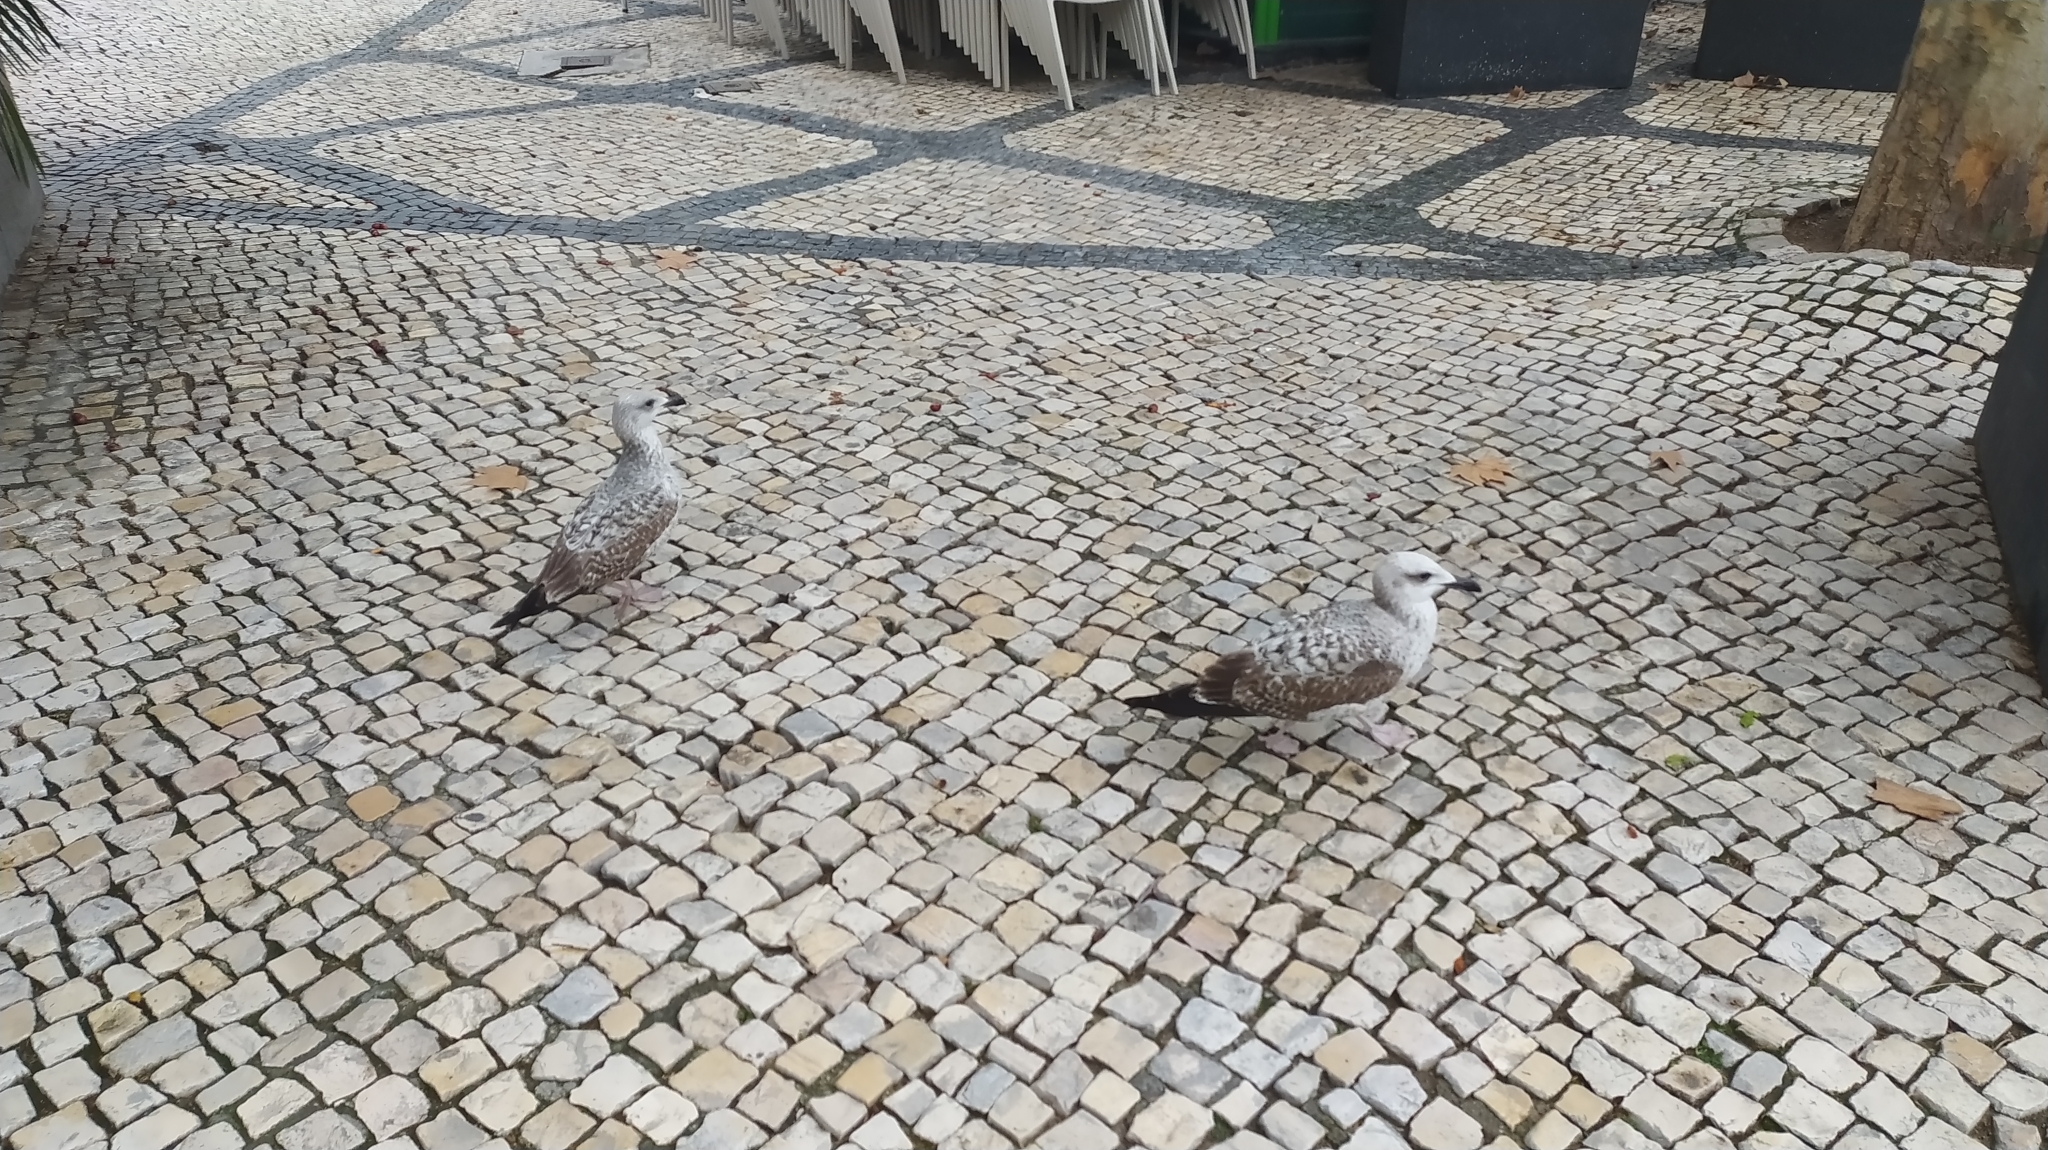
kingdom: Animalia
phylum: Chordata
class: Aves
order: Charadriiformes
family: Laridae
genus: Larus
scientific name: Larus michahellis
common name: Yellow-legged gull
